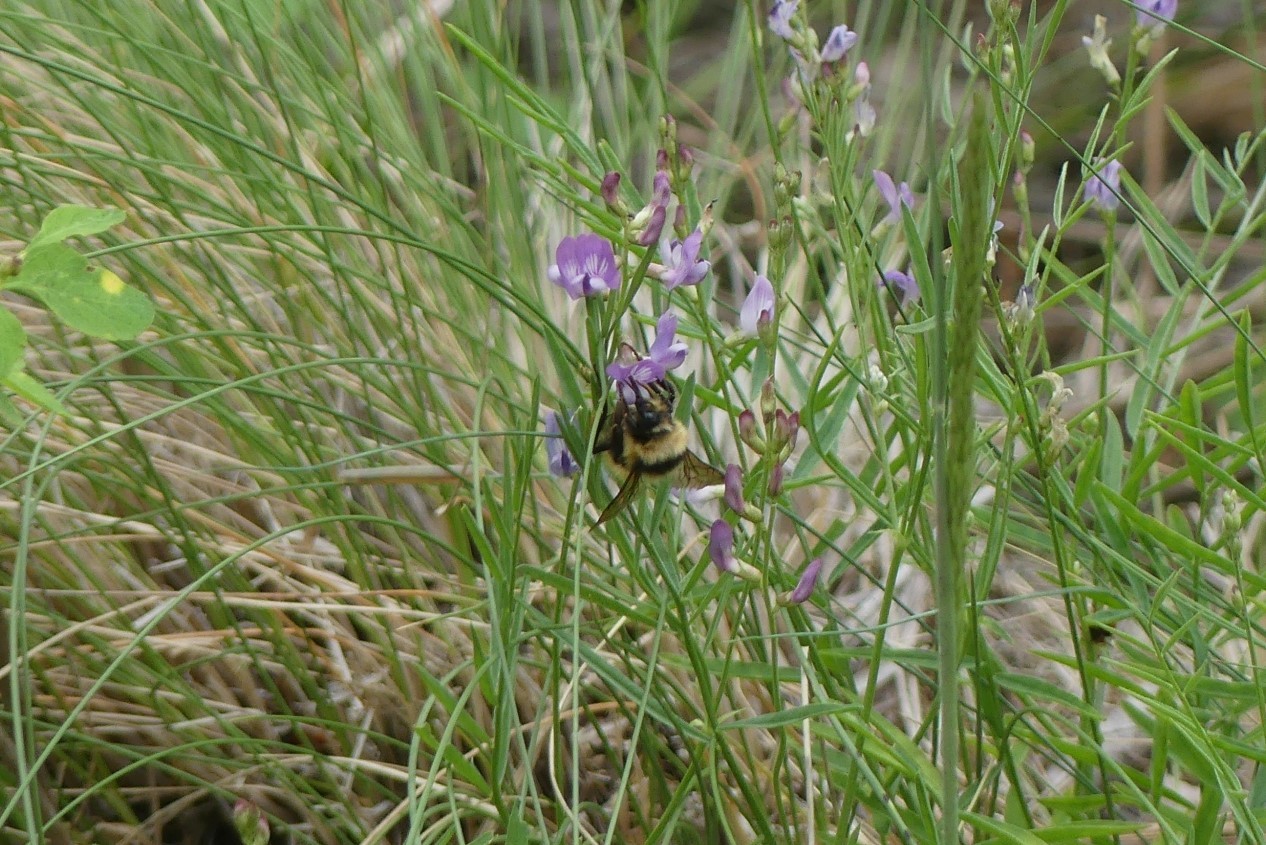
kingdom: Animalia
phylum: Arthropoda
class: Insecta
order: Hymenoptera
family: Apidae
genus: Bombus
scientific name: Bombus centralis
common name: Central bumble bee
